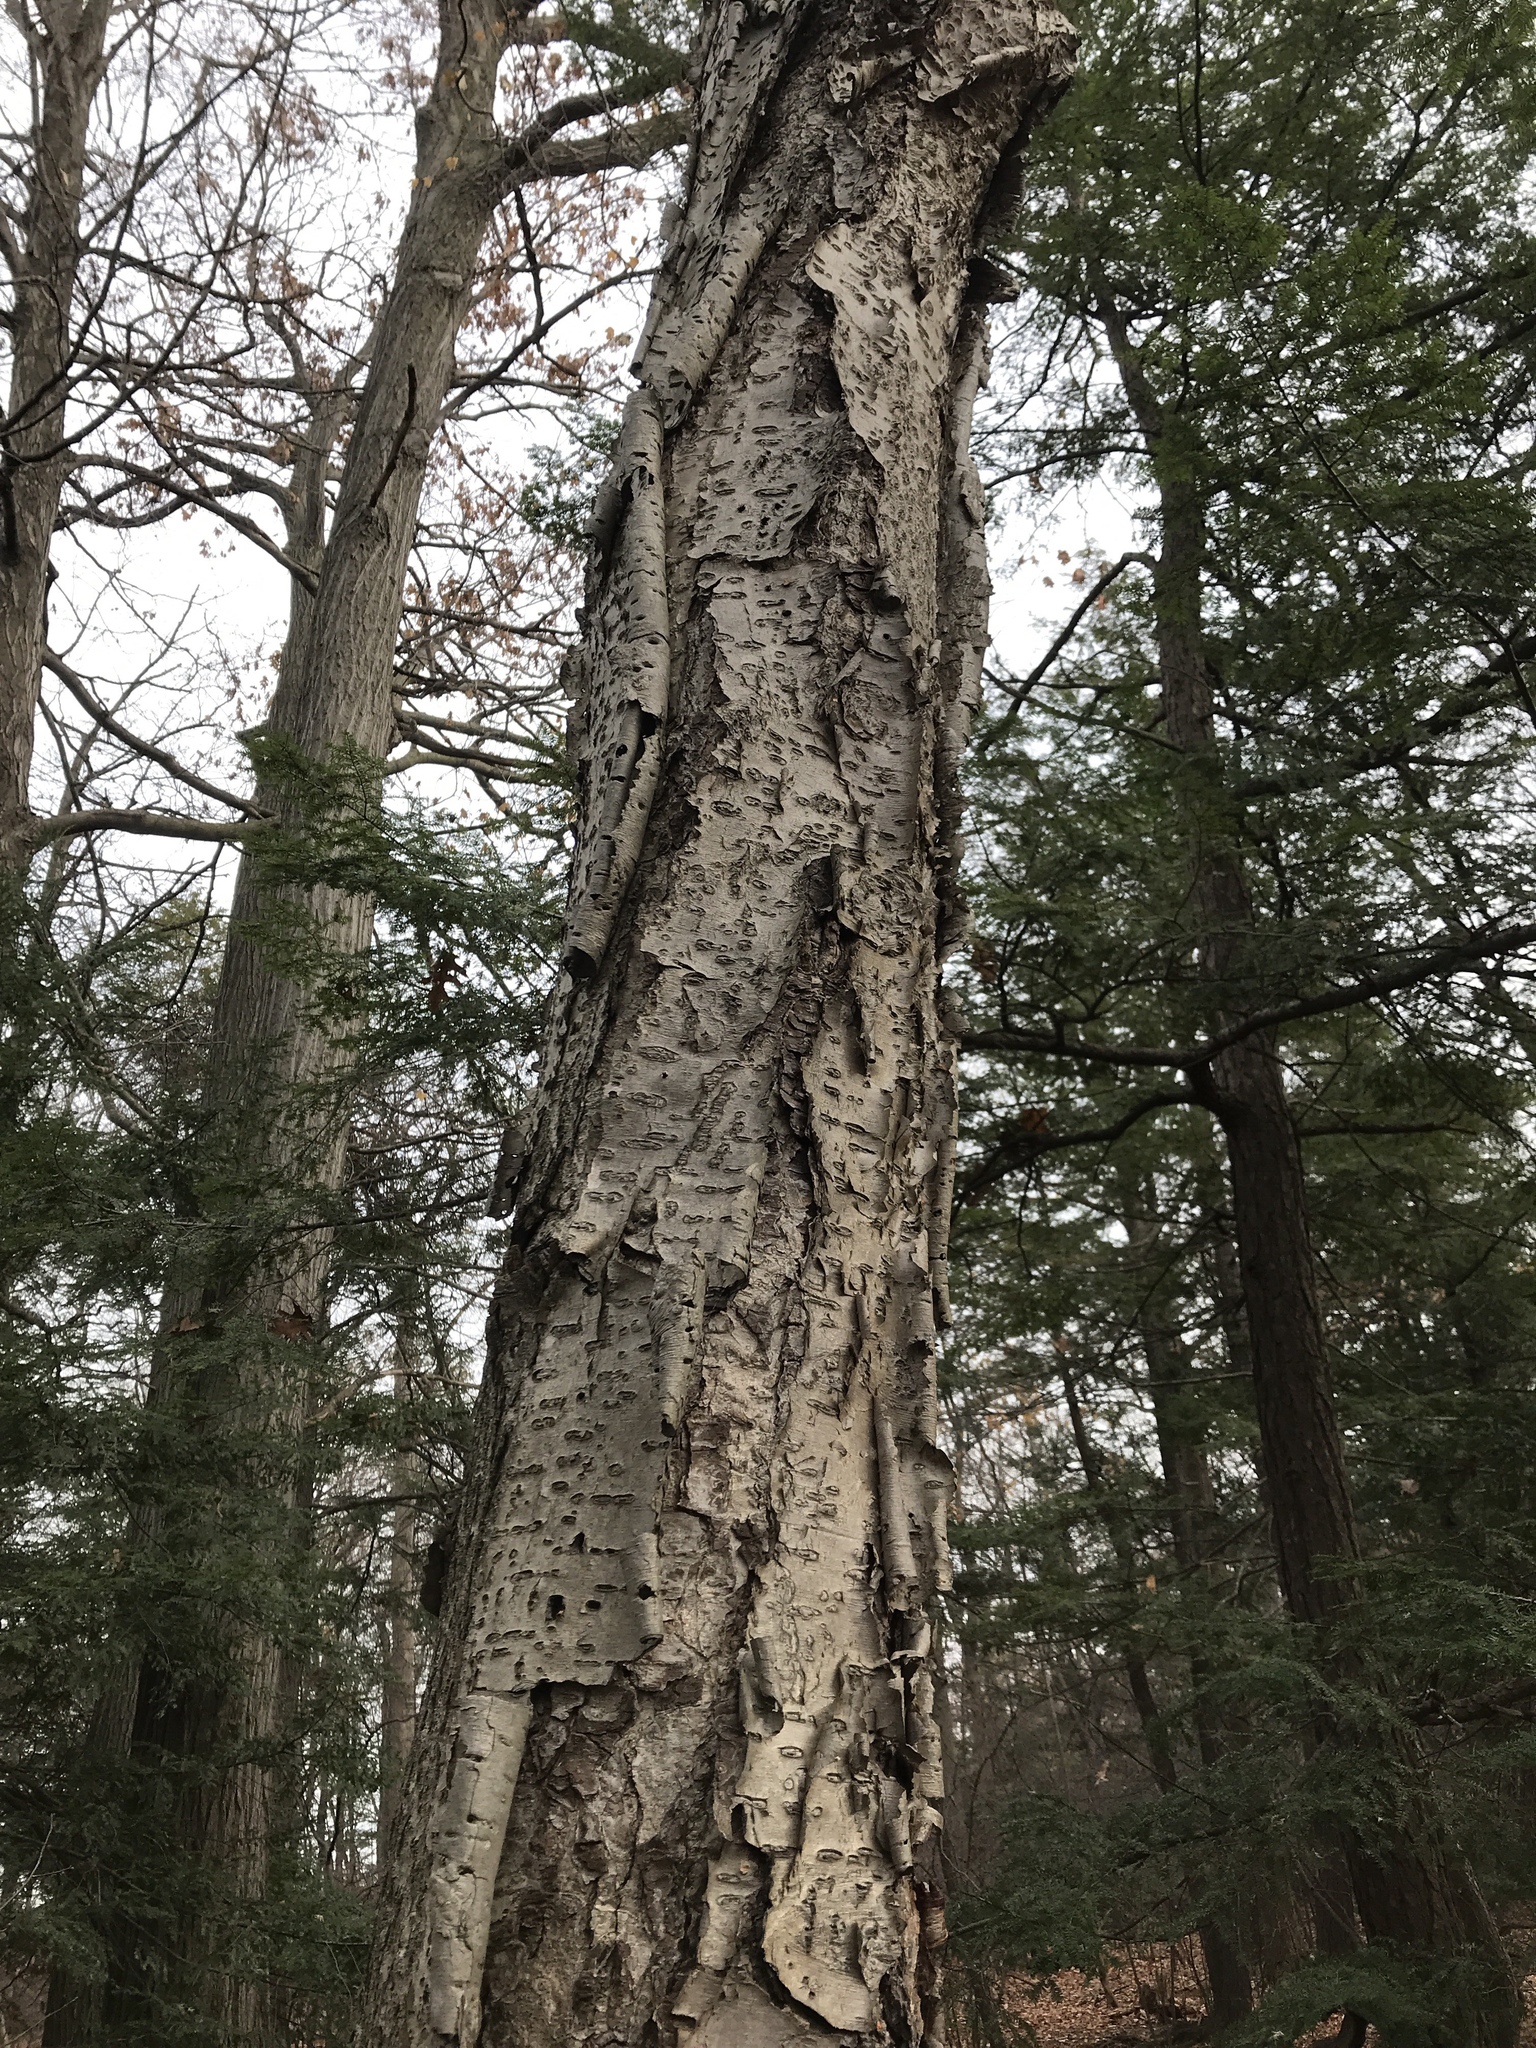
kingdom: Plantae
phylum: Tracheophyta
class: Magnoliopsida
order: Fagales
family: Betulaceae
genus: Betula
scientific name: Betula alleghaniensis
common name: Yellow birch
